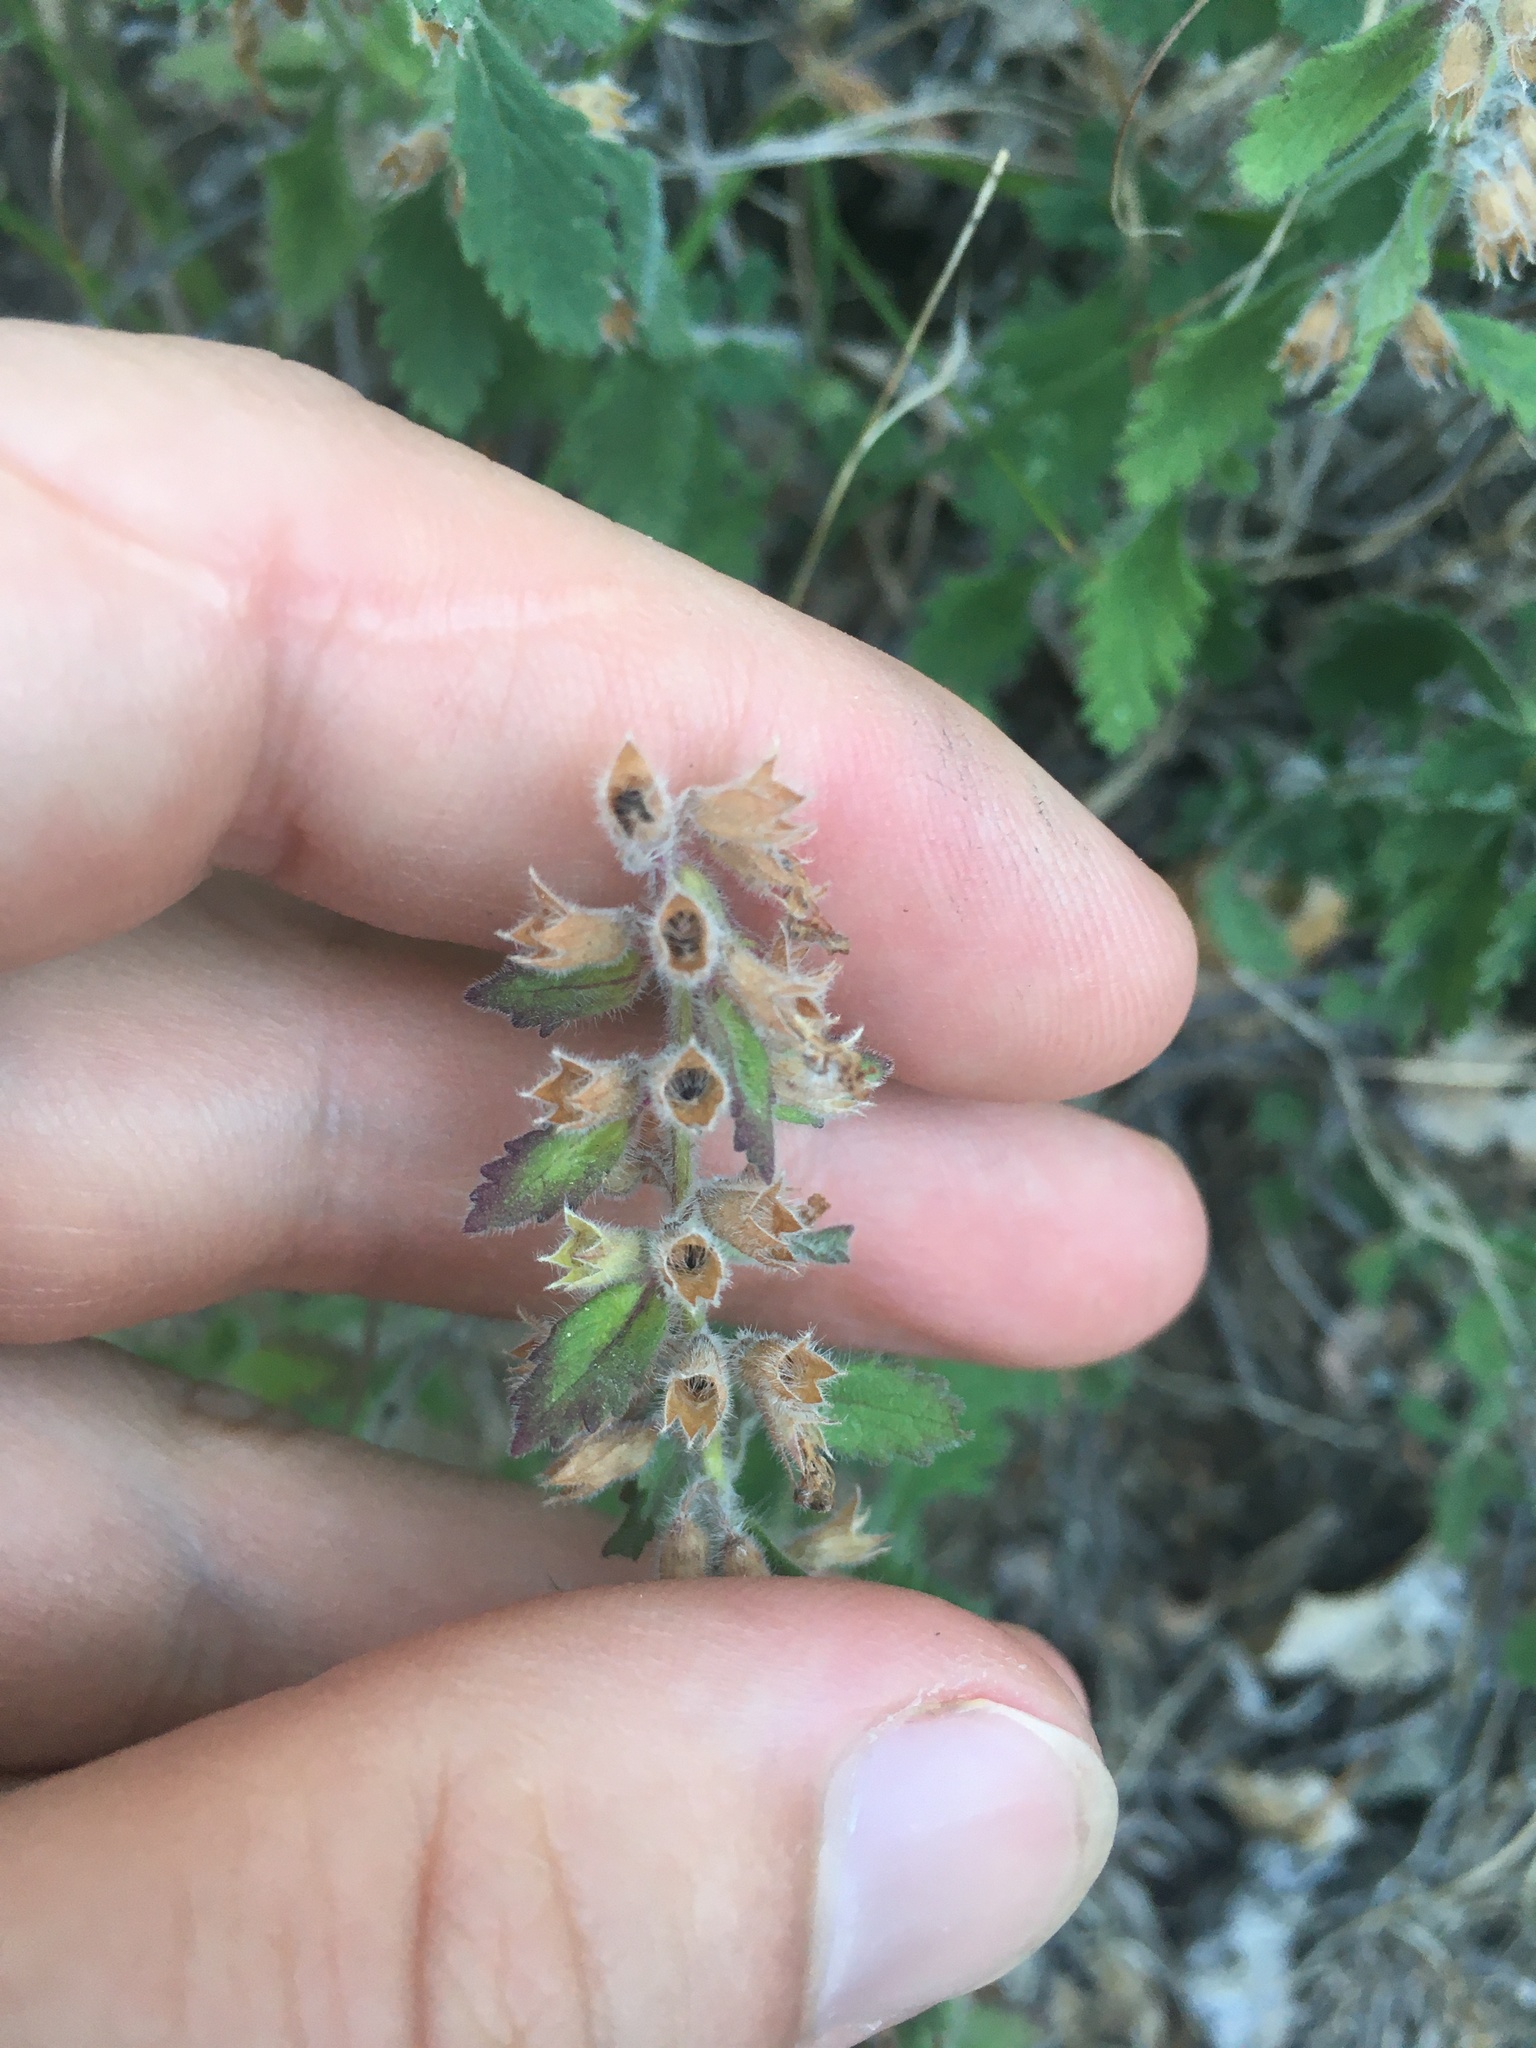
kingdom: Plantae
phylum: Tracheophyta
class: Magnoliopsida
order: Lamiales
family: Lamiaceae
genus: Teucrium
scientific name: Teucrium chamaedrys
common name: Wall germander
